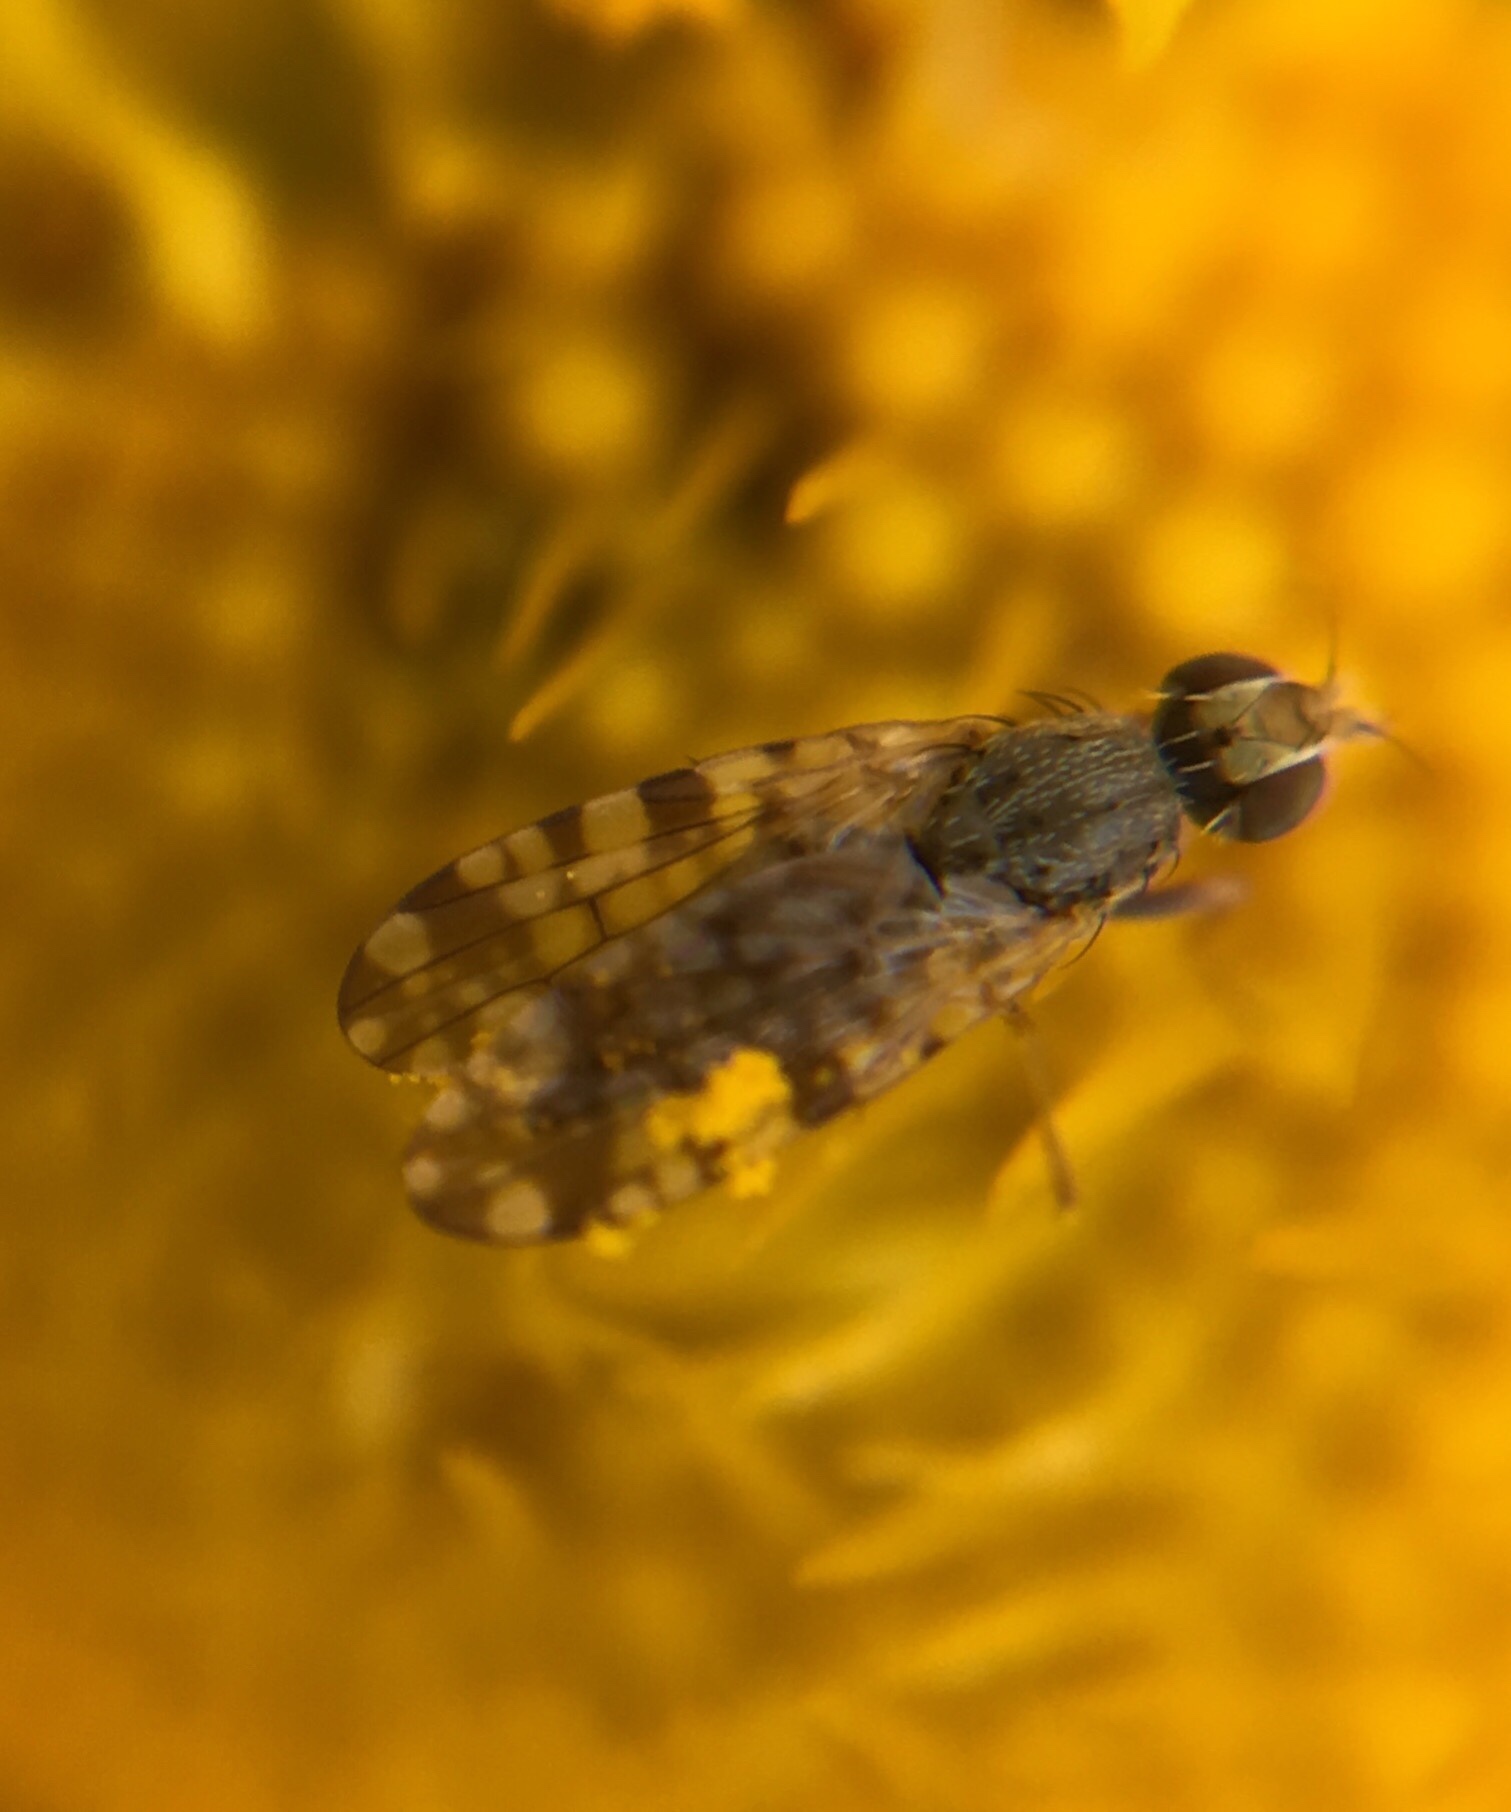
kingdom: Animalia
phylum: Arthropoda
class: Insecta
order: Diptera
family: Tephritidae
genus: Dioxyna
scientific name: Dioxyna picciola
